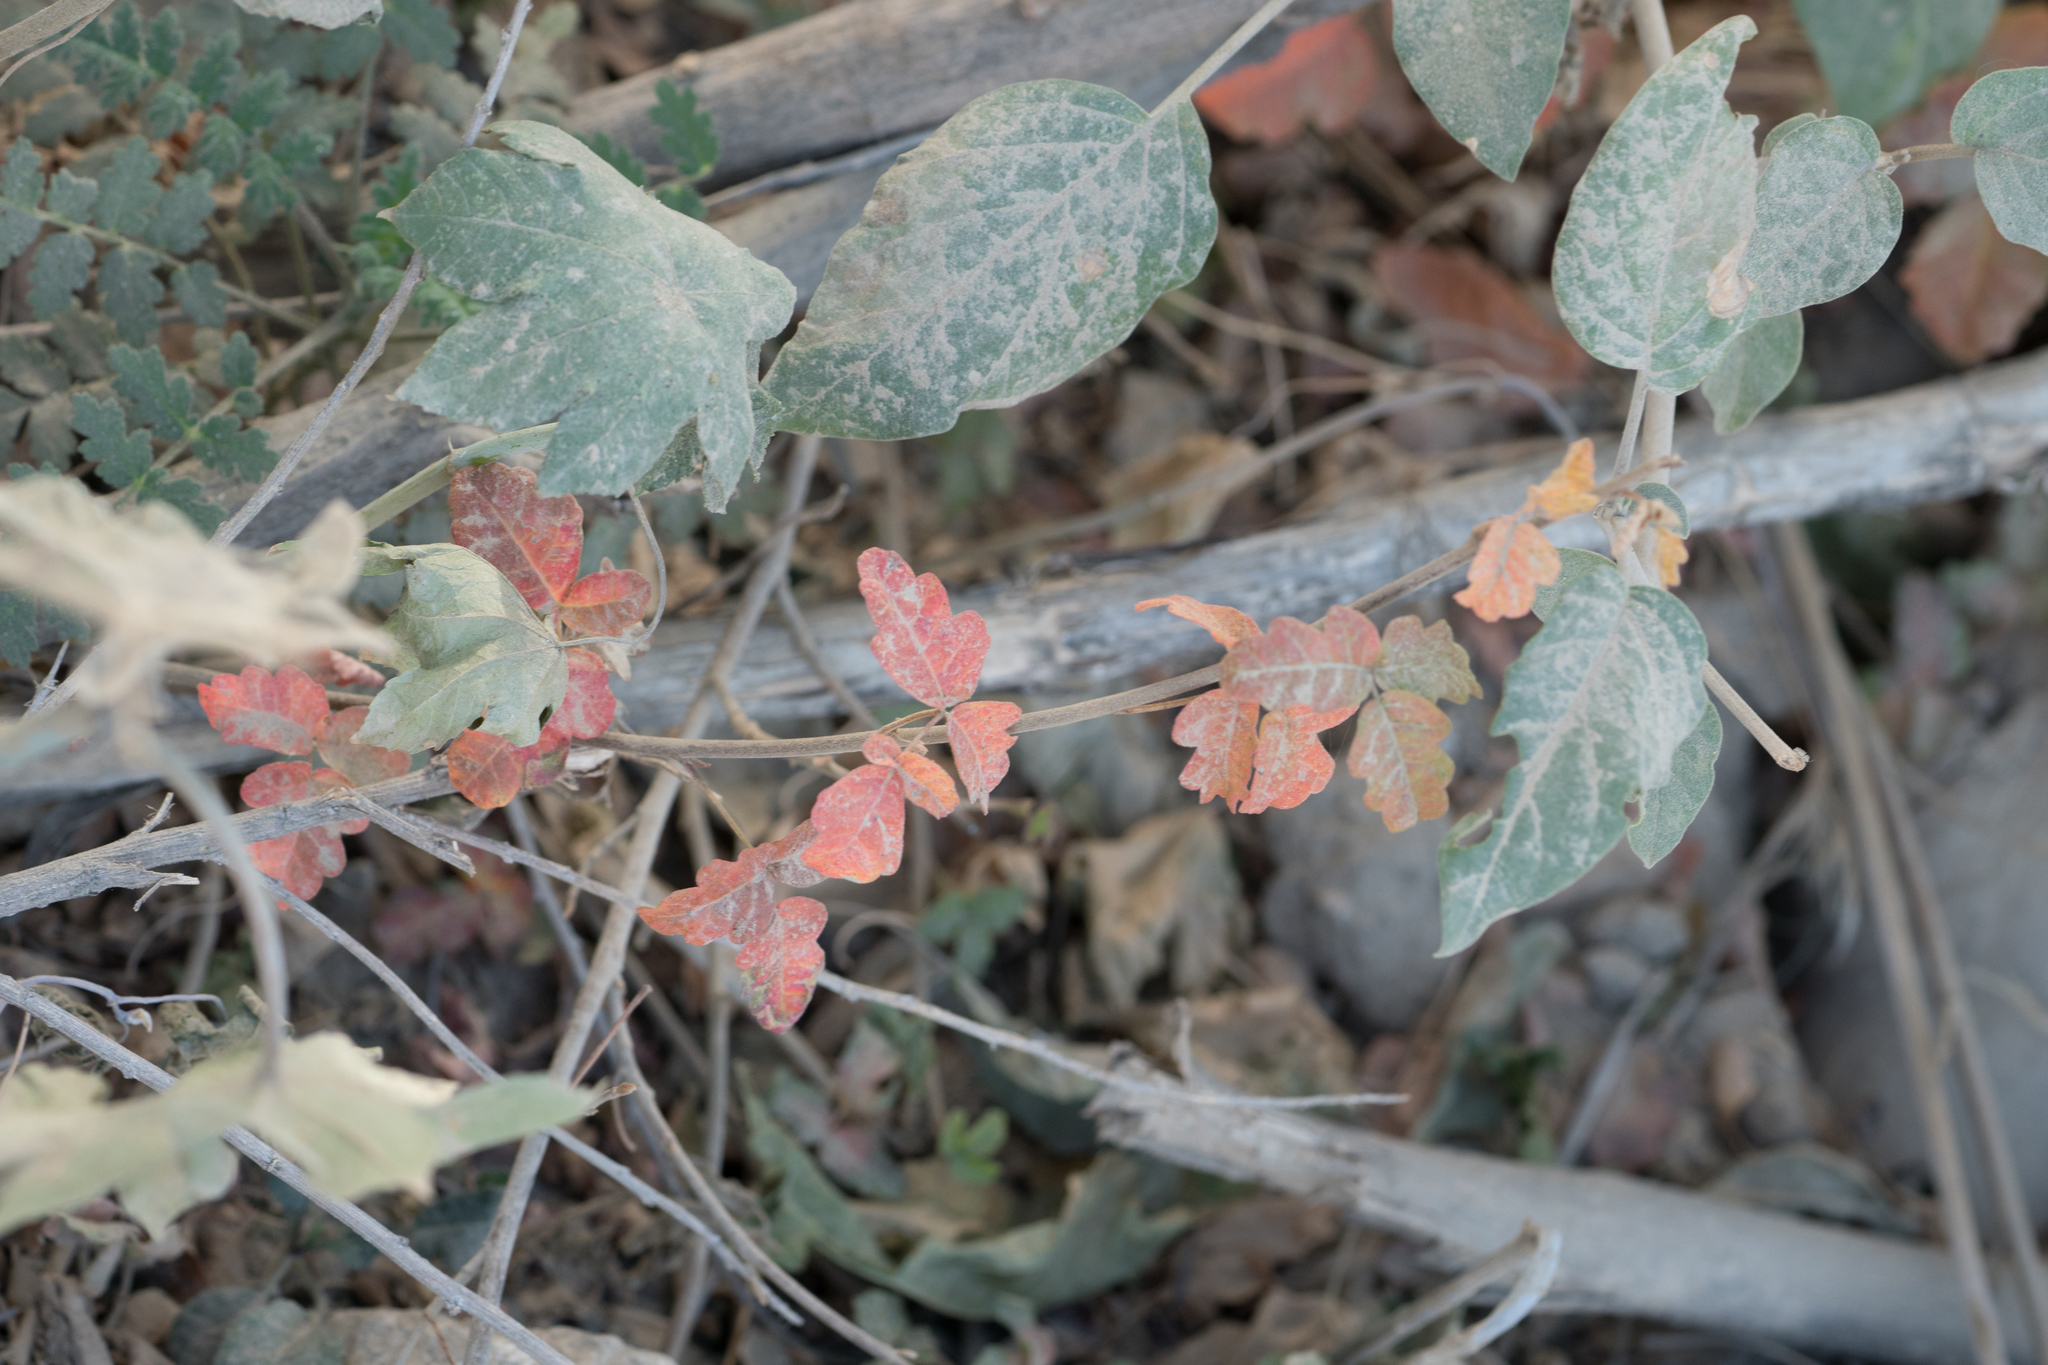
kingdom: Plantae
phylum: Tracheophyta
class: Magnoliopsida
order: Sapindales
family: Anacardiaceae
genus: Toxicodendron
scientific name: Toxicodendron diversilobum
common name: Pacific poison-oak
